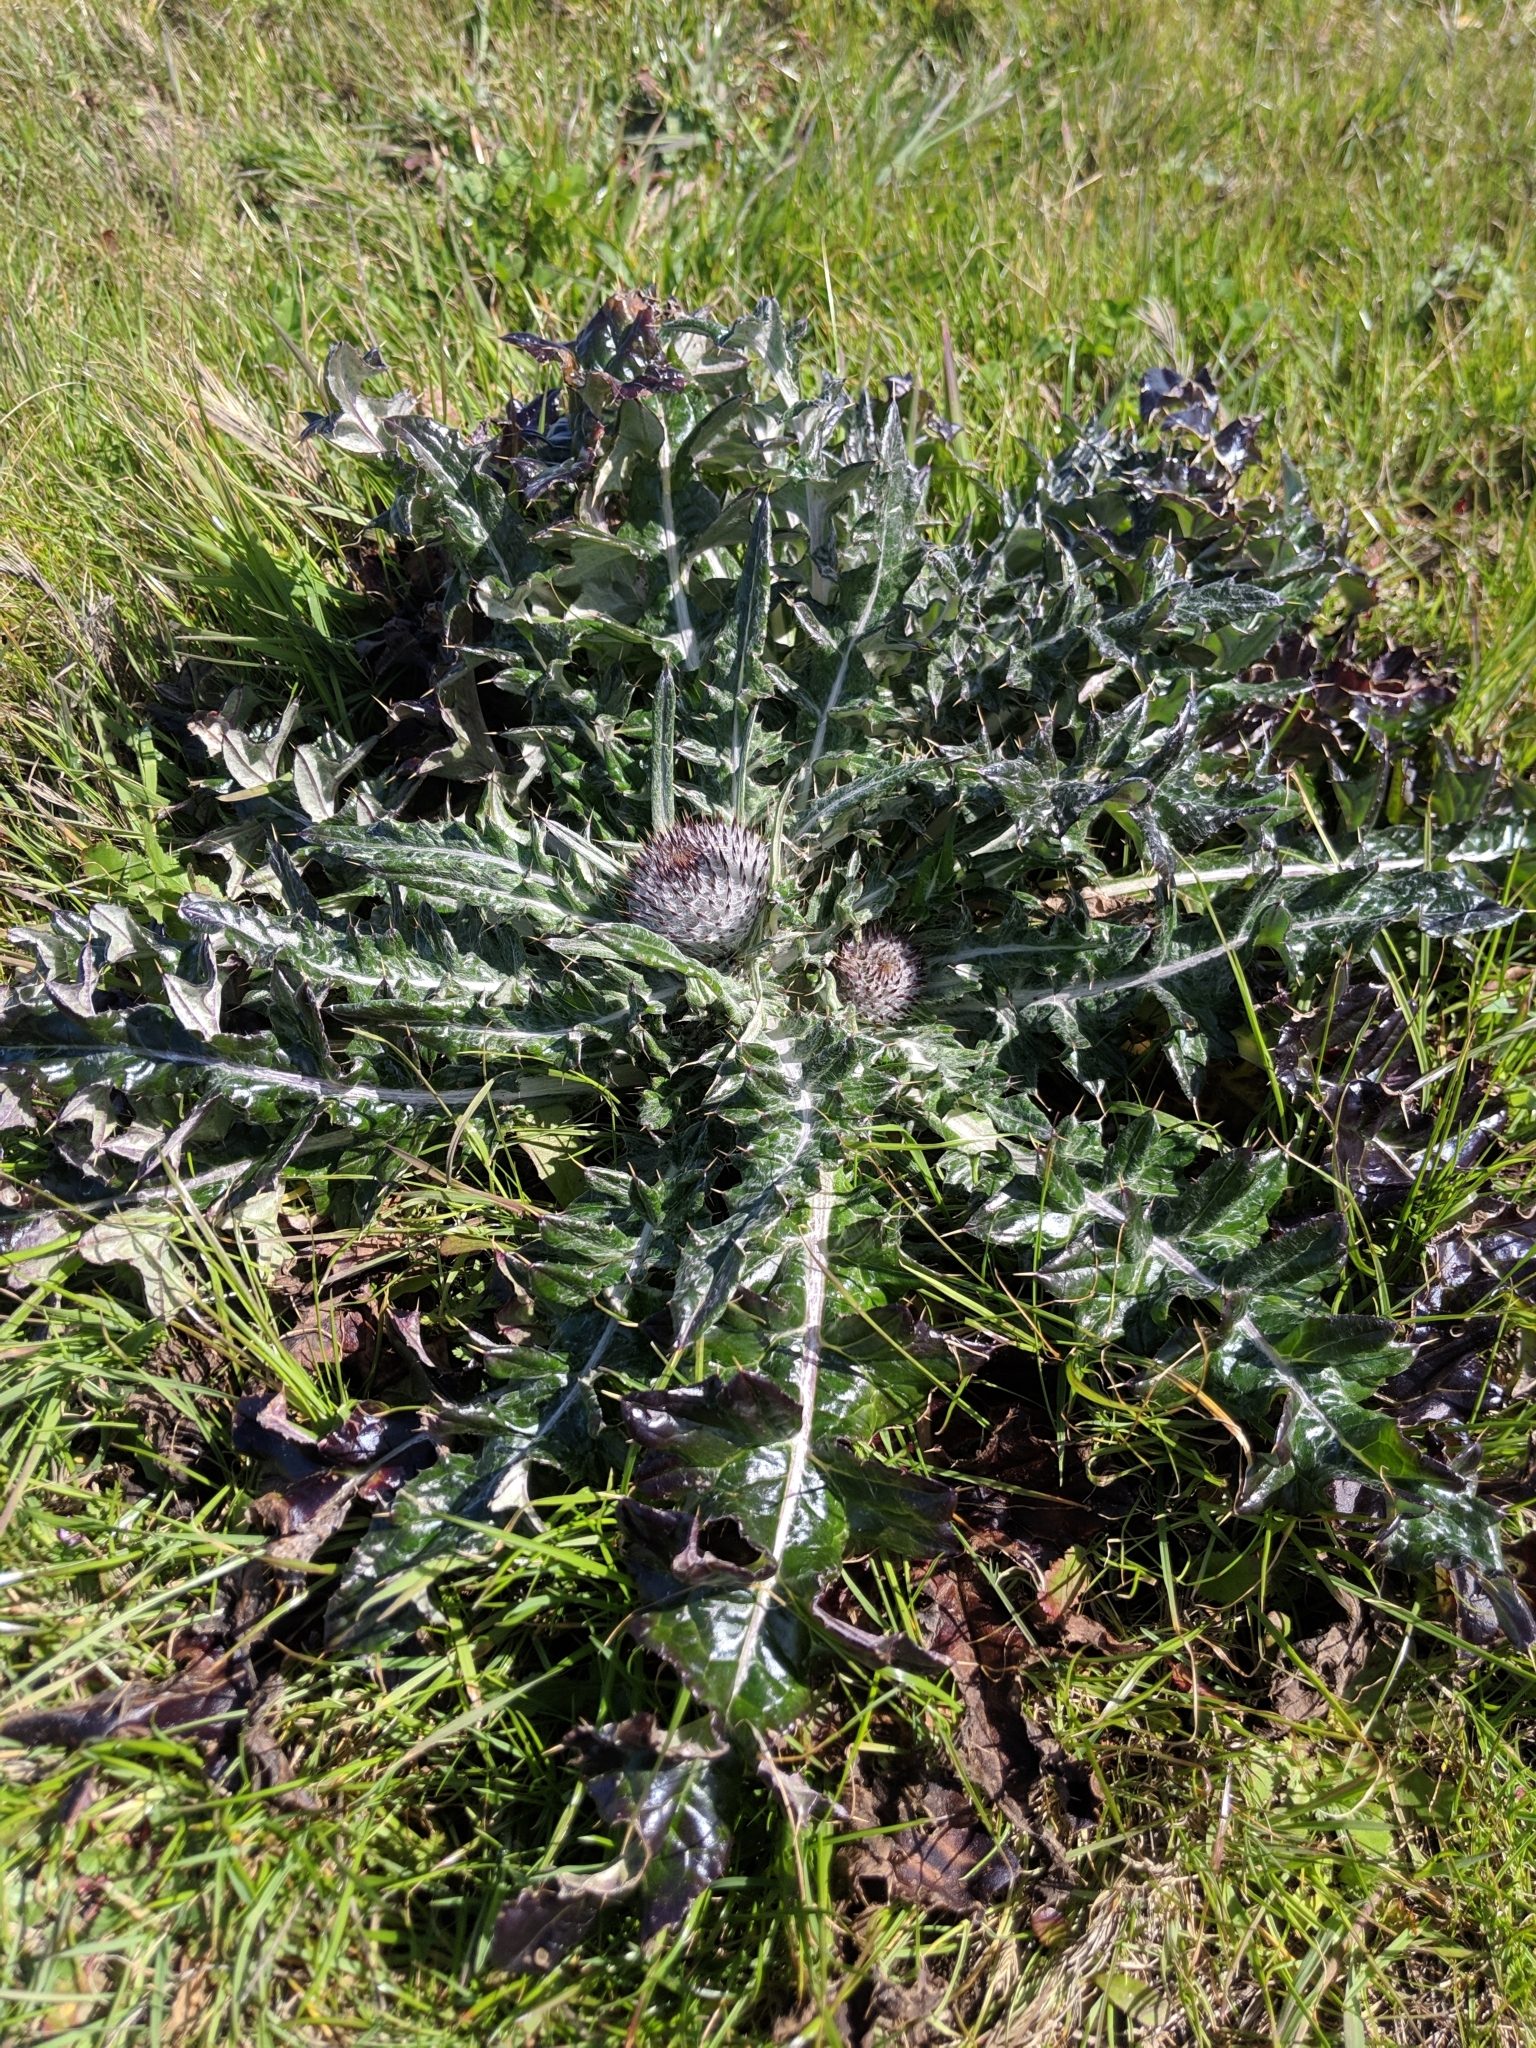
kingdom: Plantae
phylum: Tracheophyta
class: Magnoliopsida
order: Asterales
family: Asteraceae
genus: Cirsium
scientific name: Cirsium occidentale
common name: Western thistle
